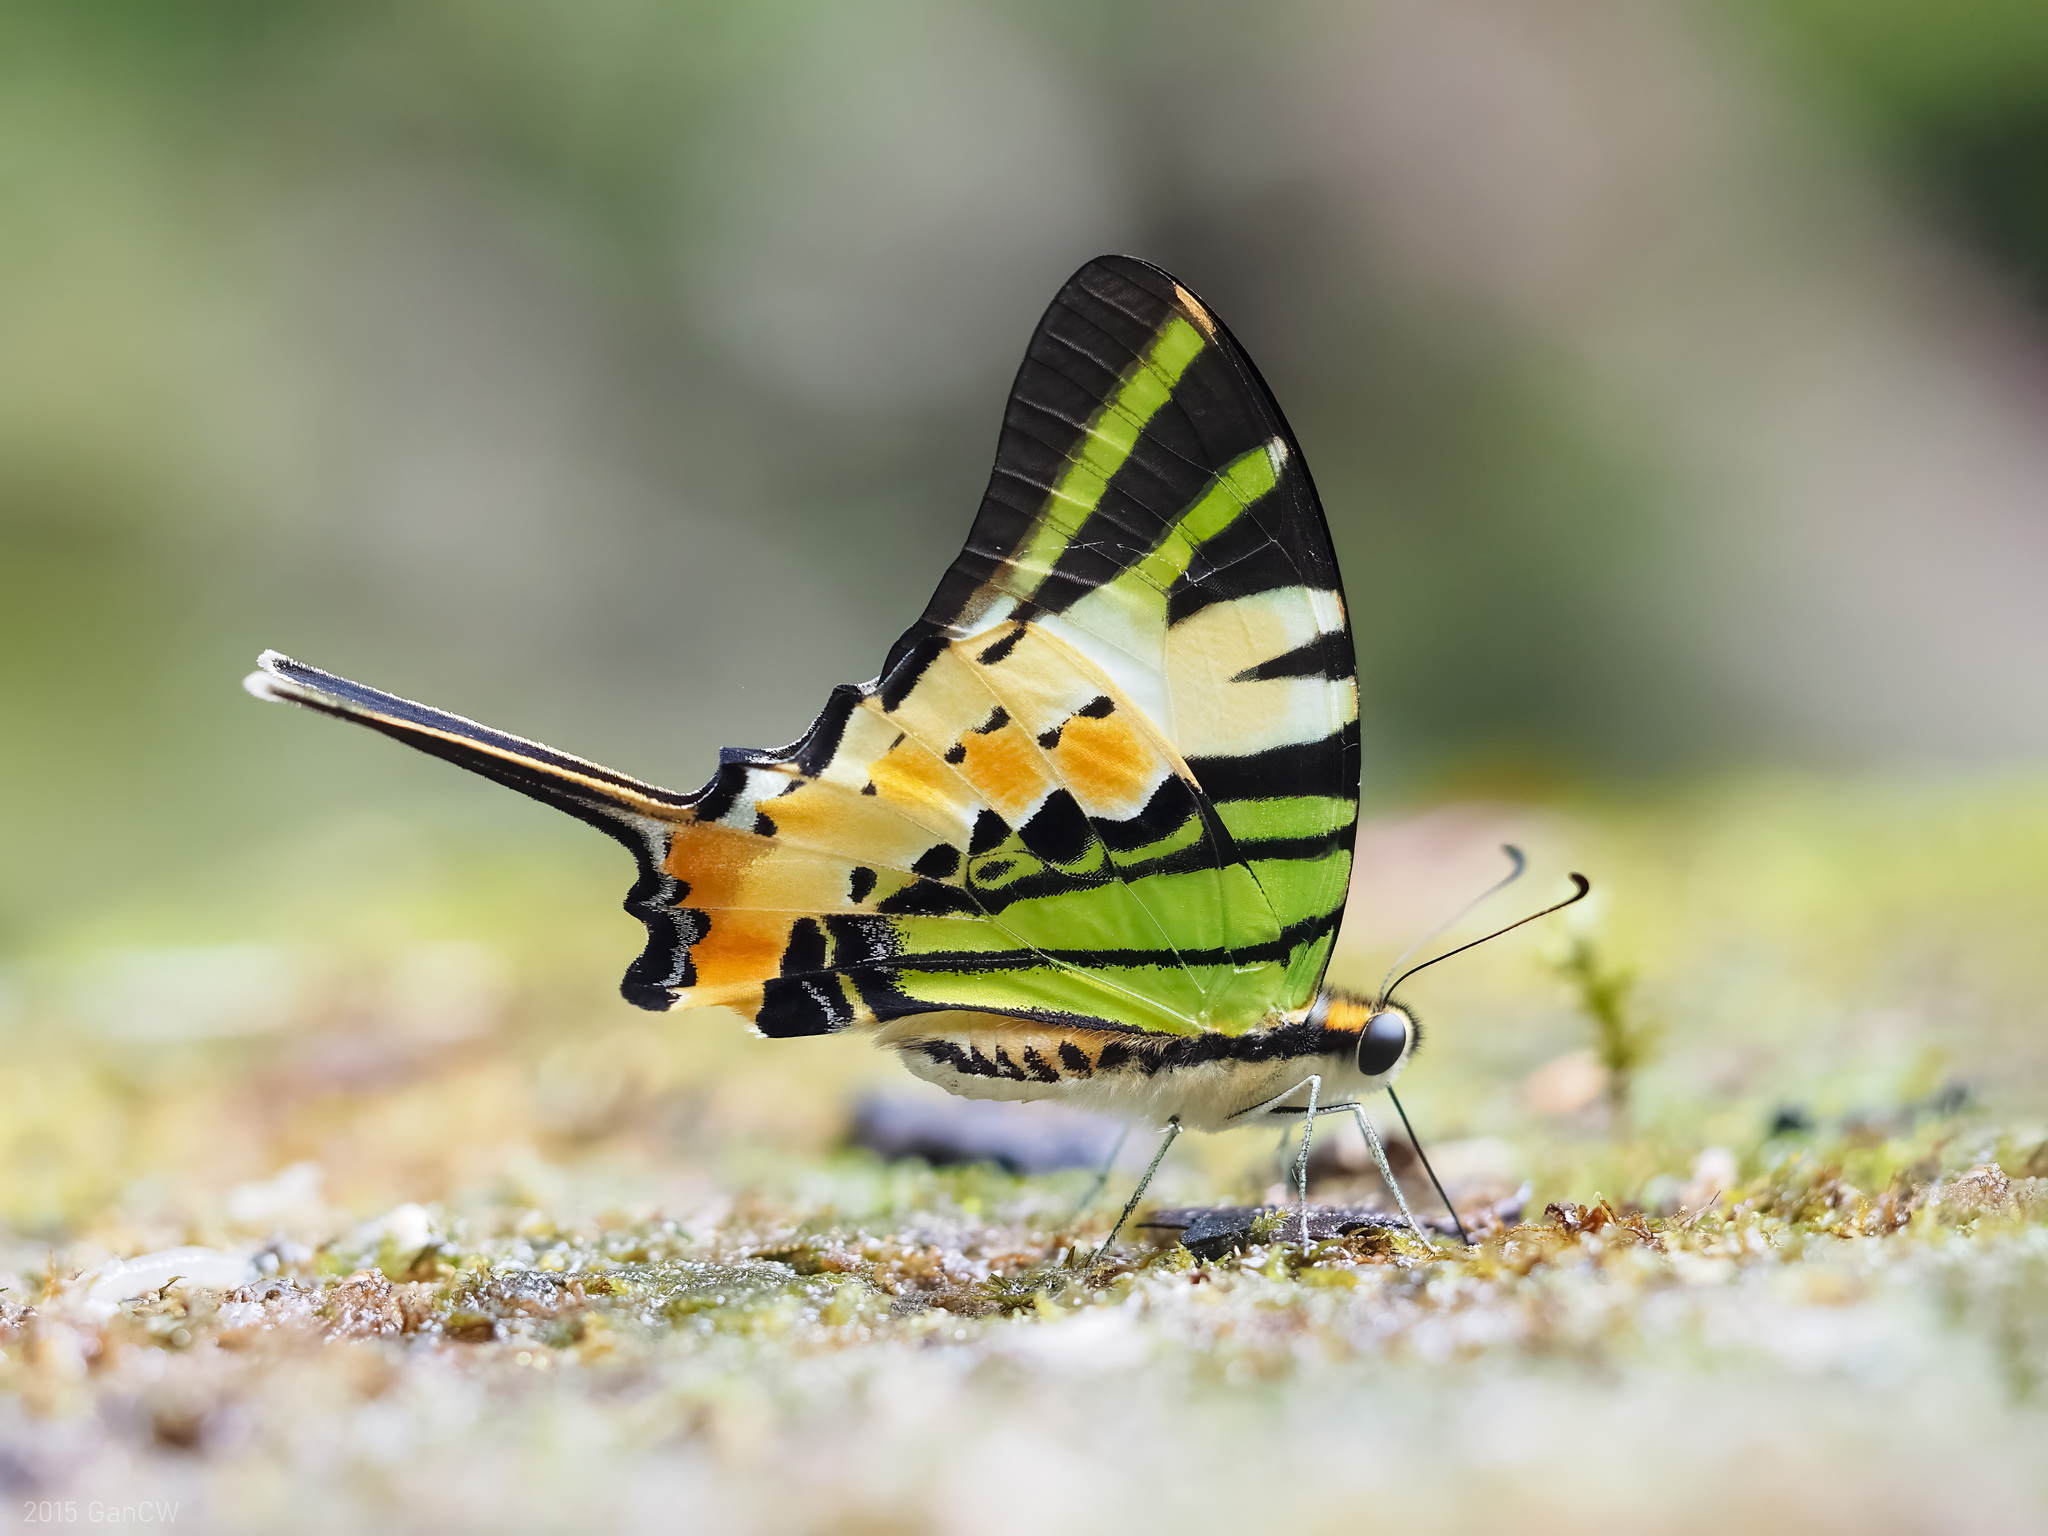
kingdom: Animalia
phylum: Arthropoda
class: Insecta
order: Lepidoptera
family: Papilionidae
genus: Graphium
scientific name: Graphium antiphates
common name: Fivebar swordtail
